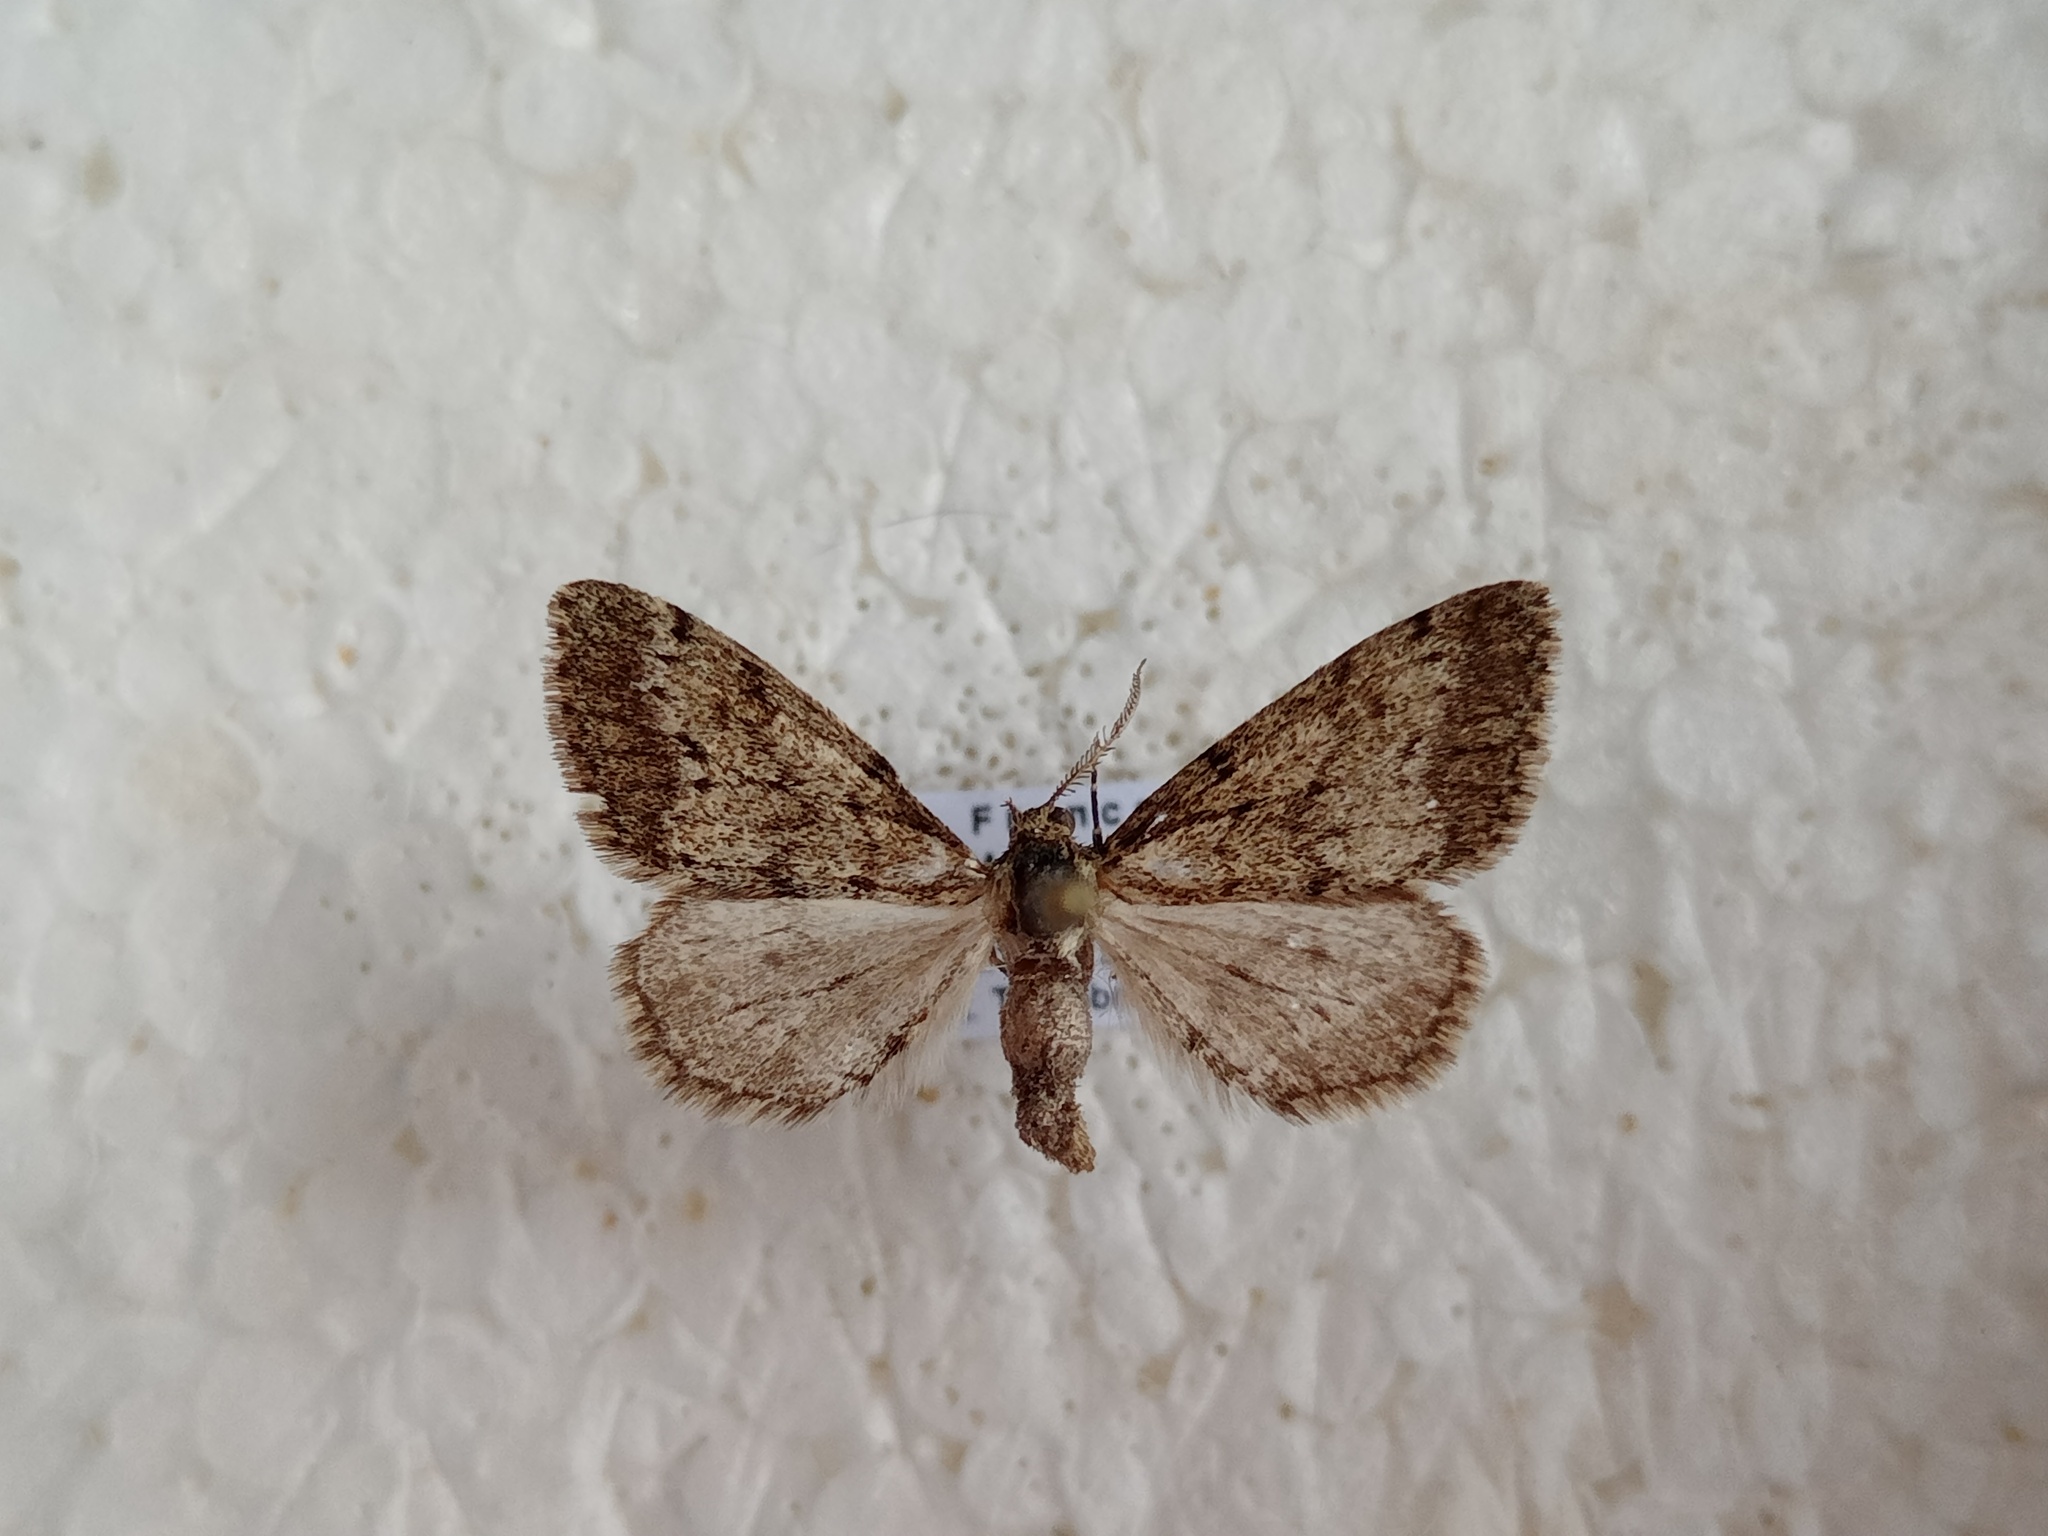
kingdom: Animalia
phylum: Arthropoda
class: Insecta
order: Lepidoptera
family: Geometridae
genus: Tephronia
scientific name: Tephronia lhommaria
